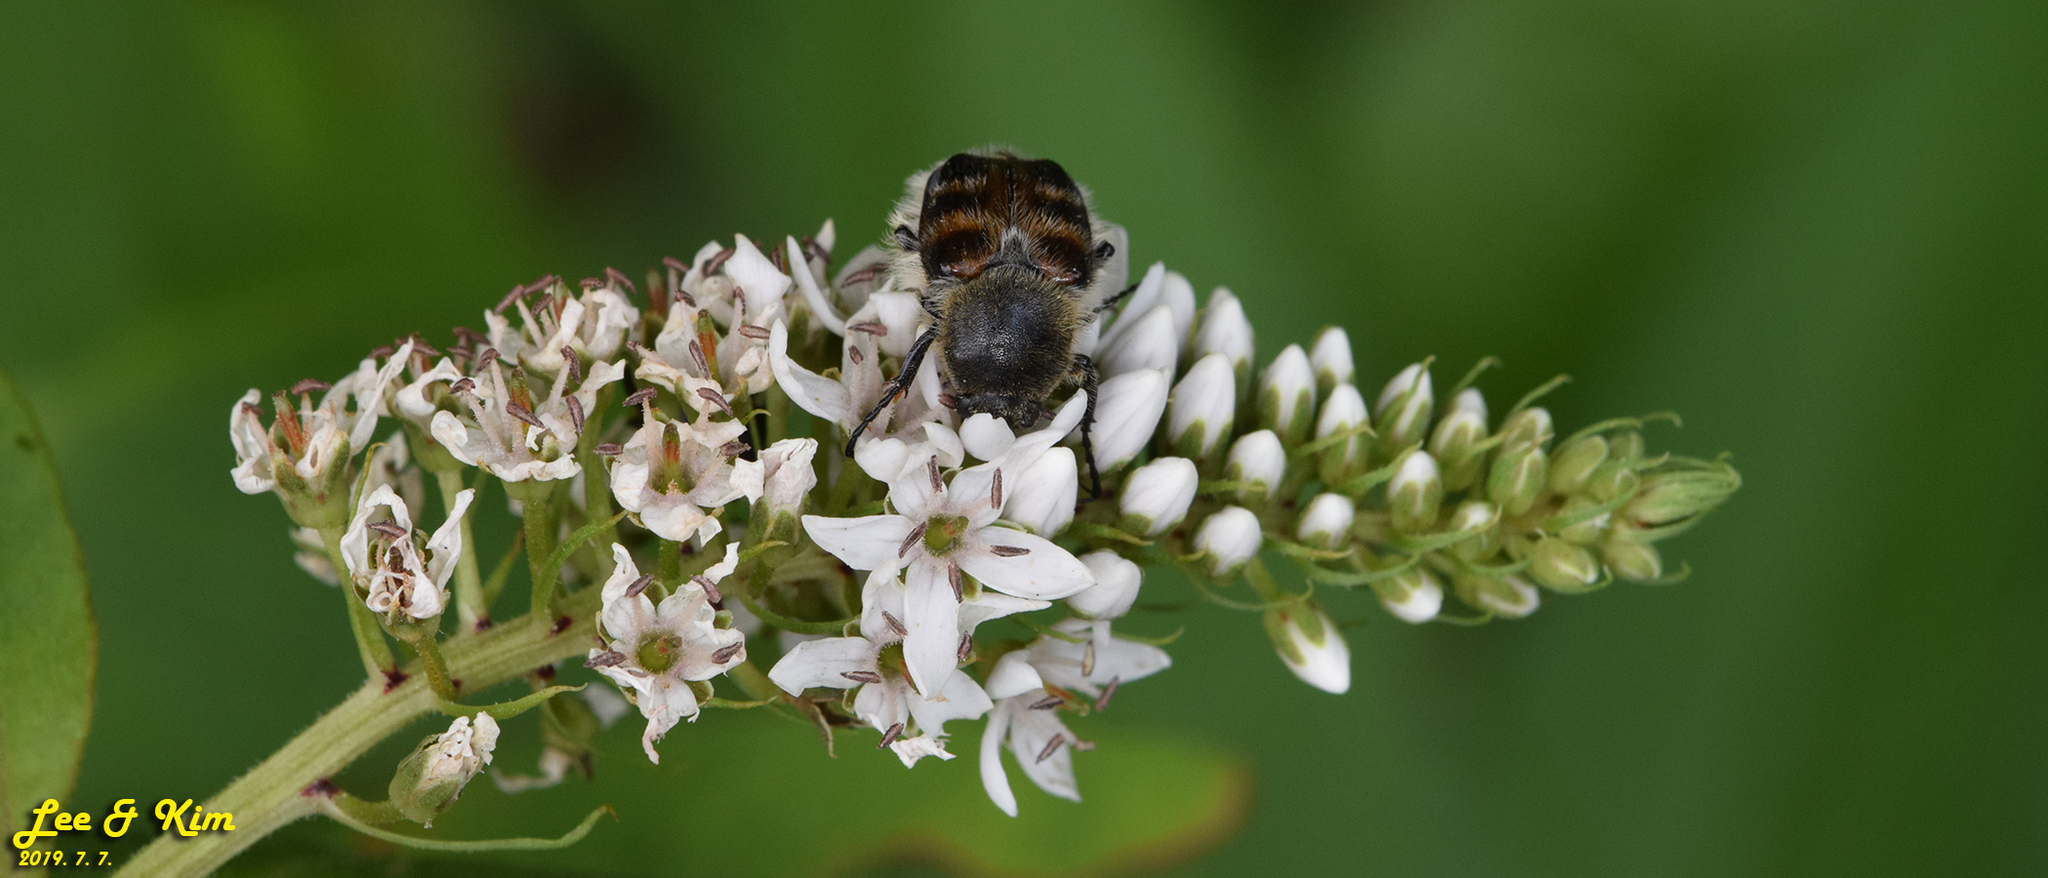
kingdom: Animalia
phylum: Arthropoda
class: Insecta
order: Coleoptera
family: Scarabaeidae
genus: Lasiotrichius
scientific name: Lasiotrichius succinctus
